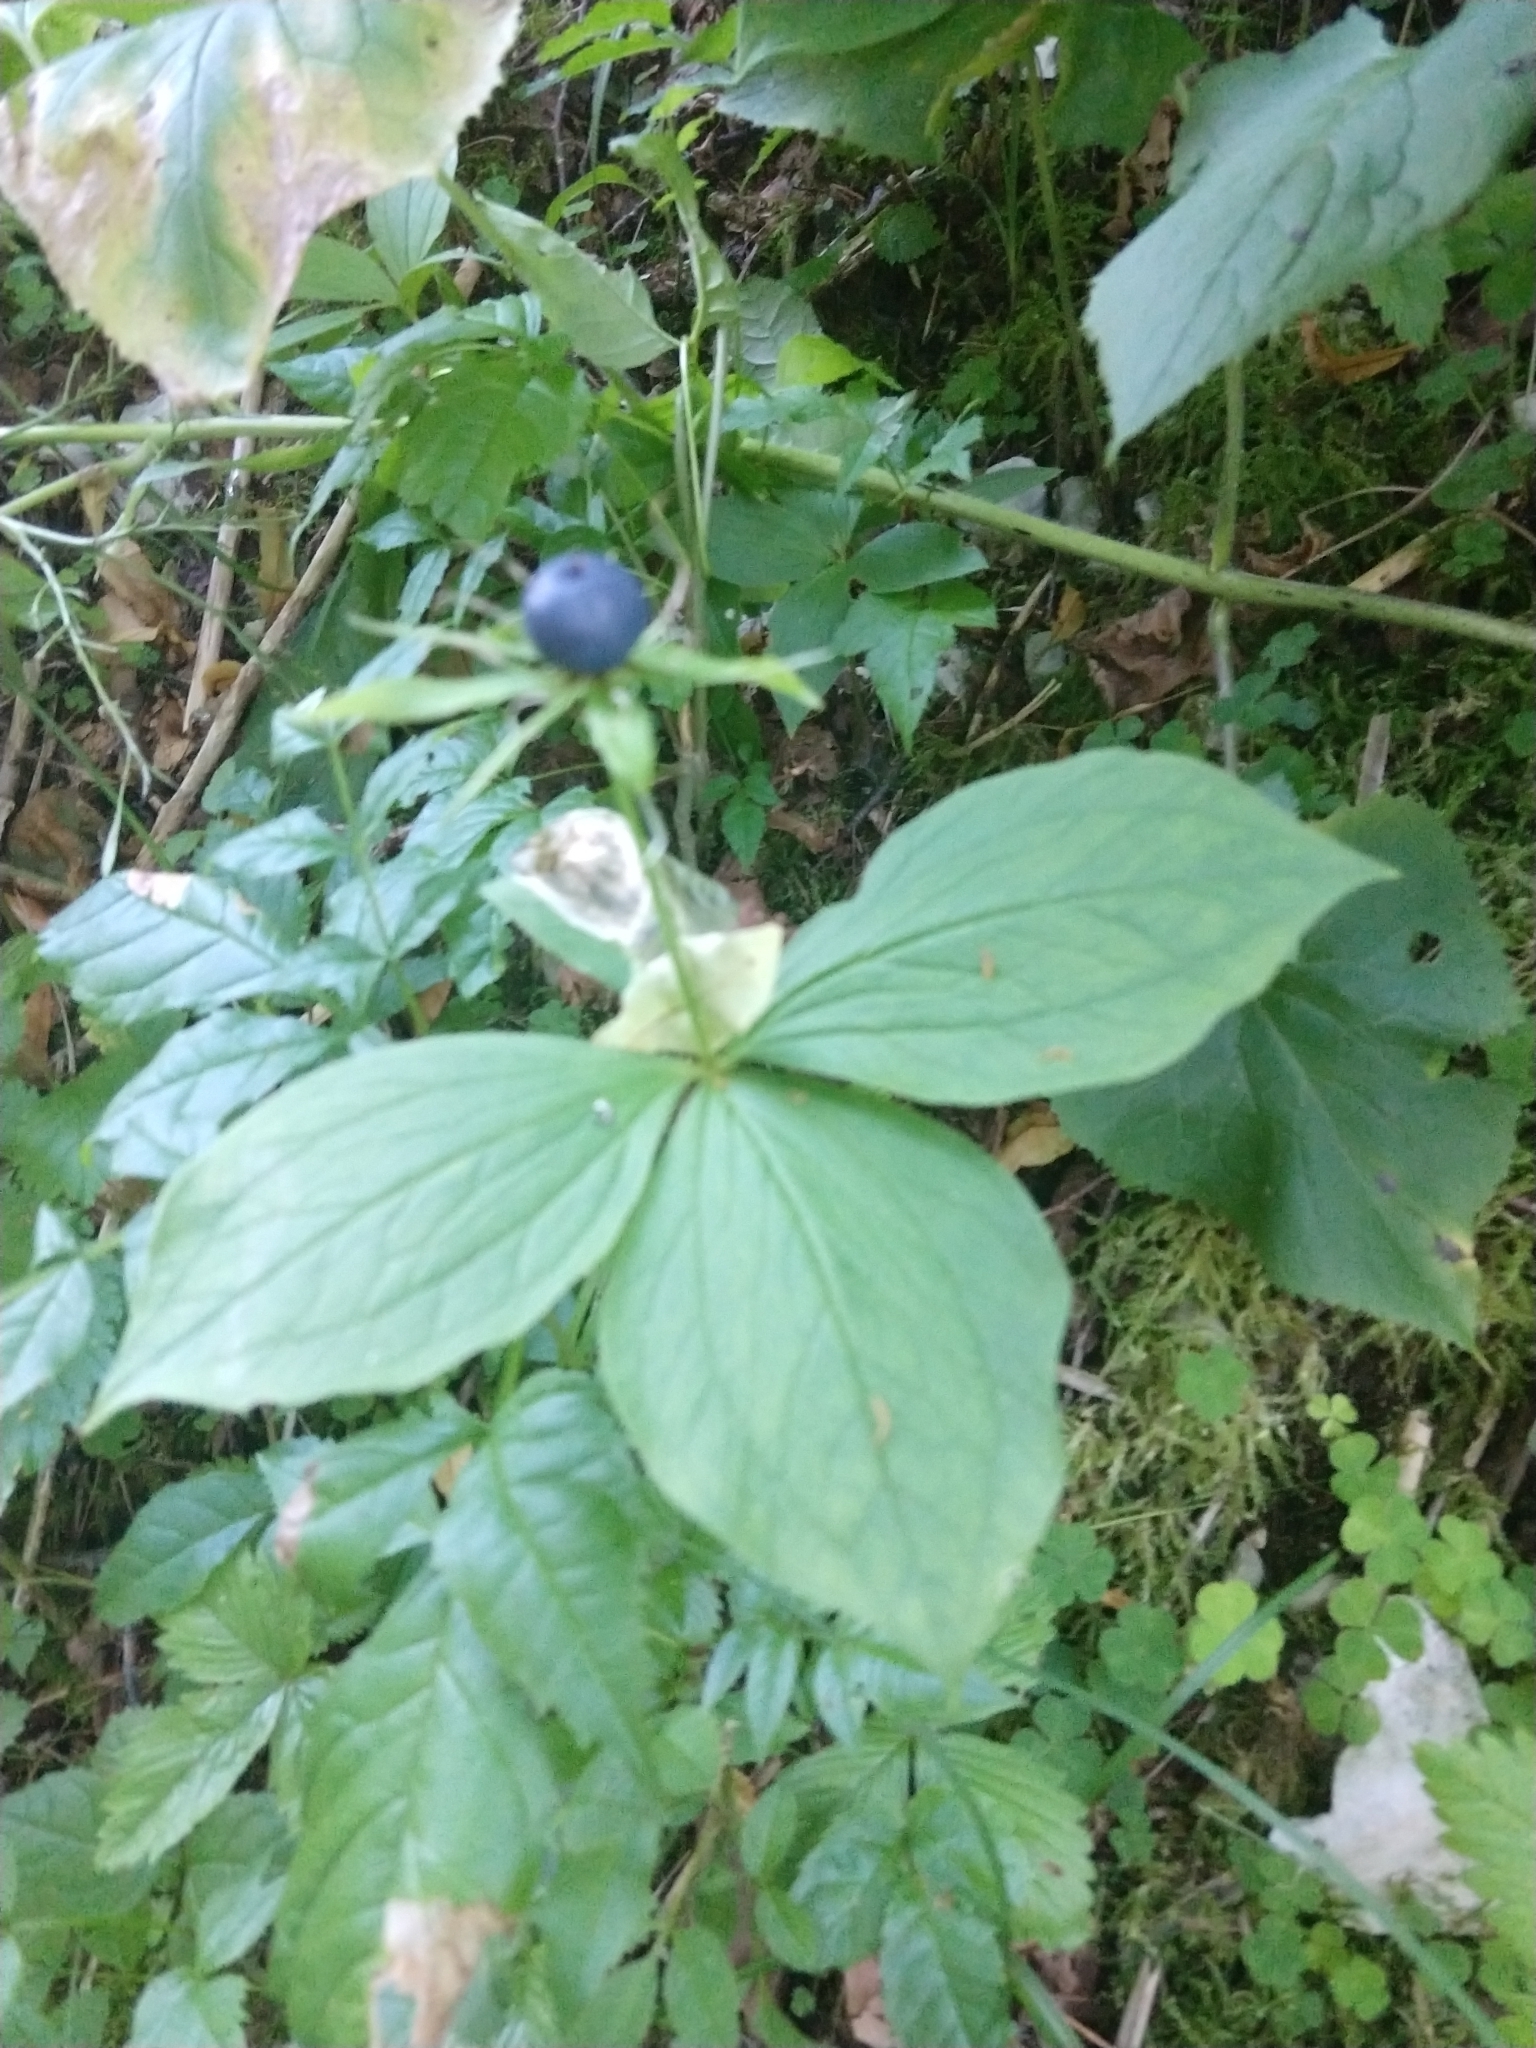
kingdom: Plantae
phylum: Tracheophyta
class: Liliopsida
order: Liliales
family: Melanthiaceae
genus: Paris
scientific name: Paris quadrifolia
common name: Herb-paris
